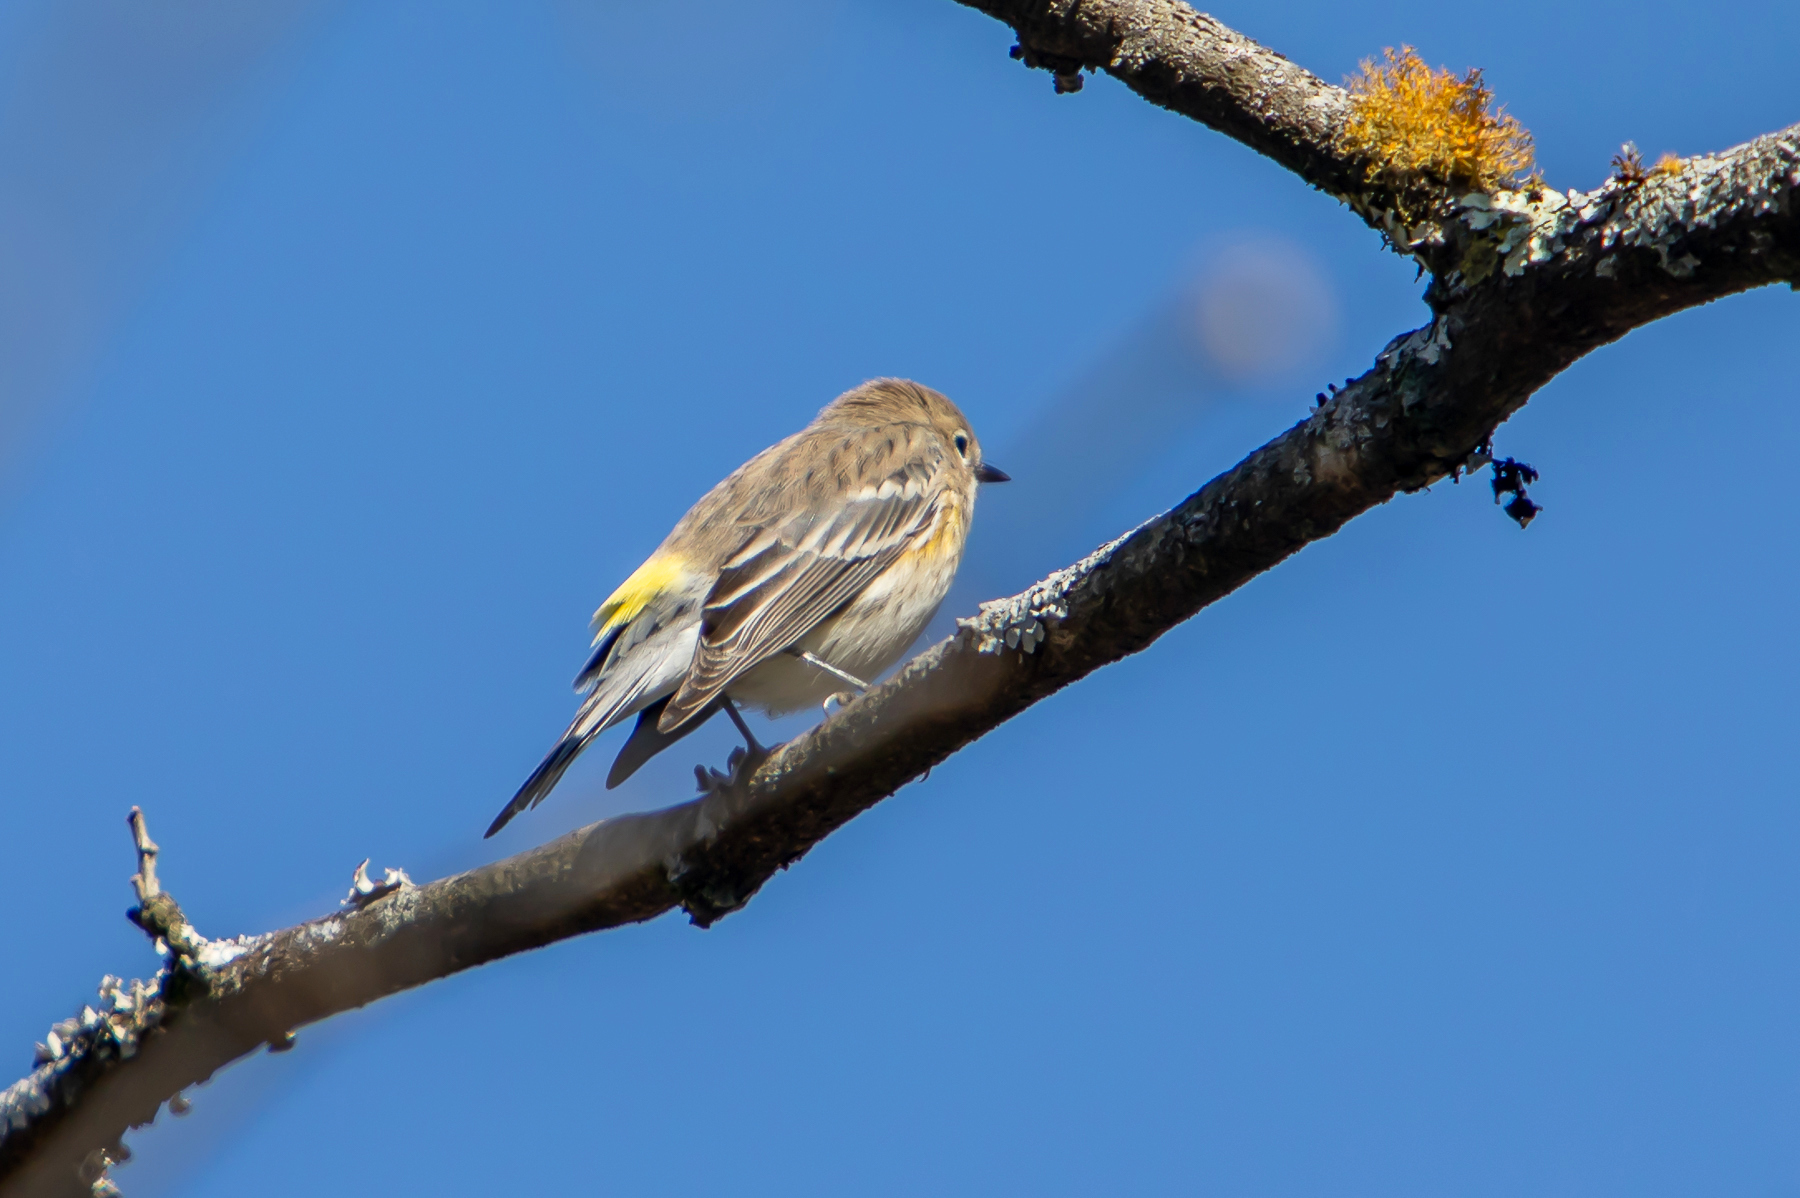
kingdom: Animalia
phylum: Chordata
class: Aves
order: Passeriformes
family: Parulidae
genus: Setophaga
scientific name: Setophaga coronata
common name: Myrtle warbler
